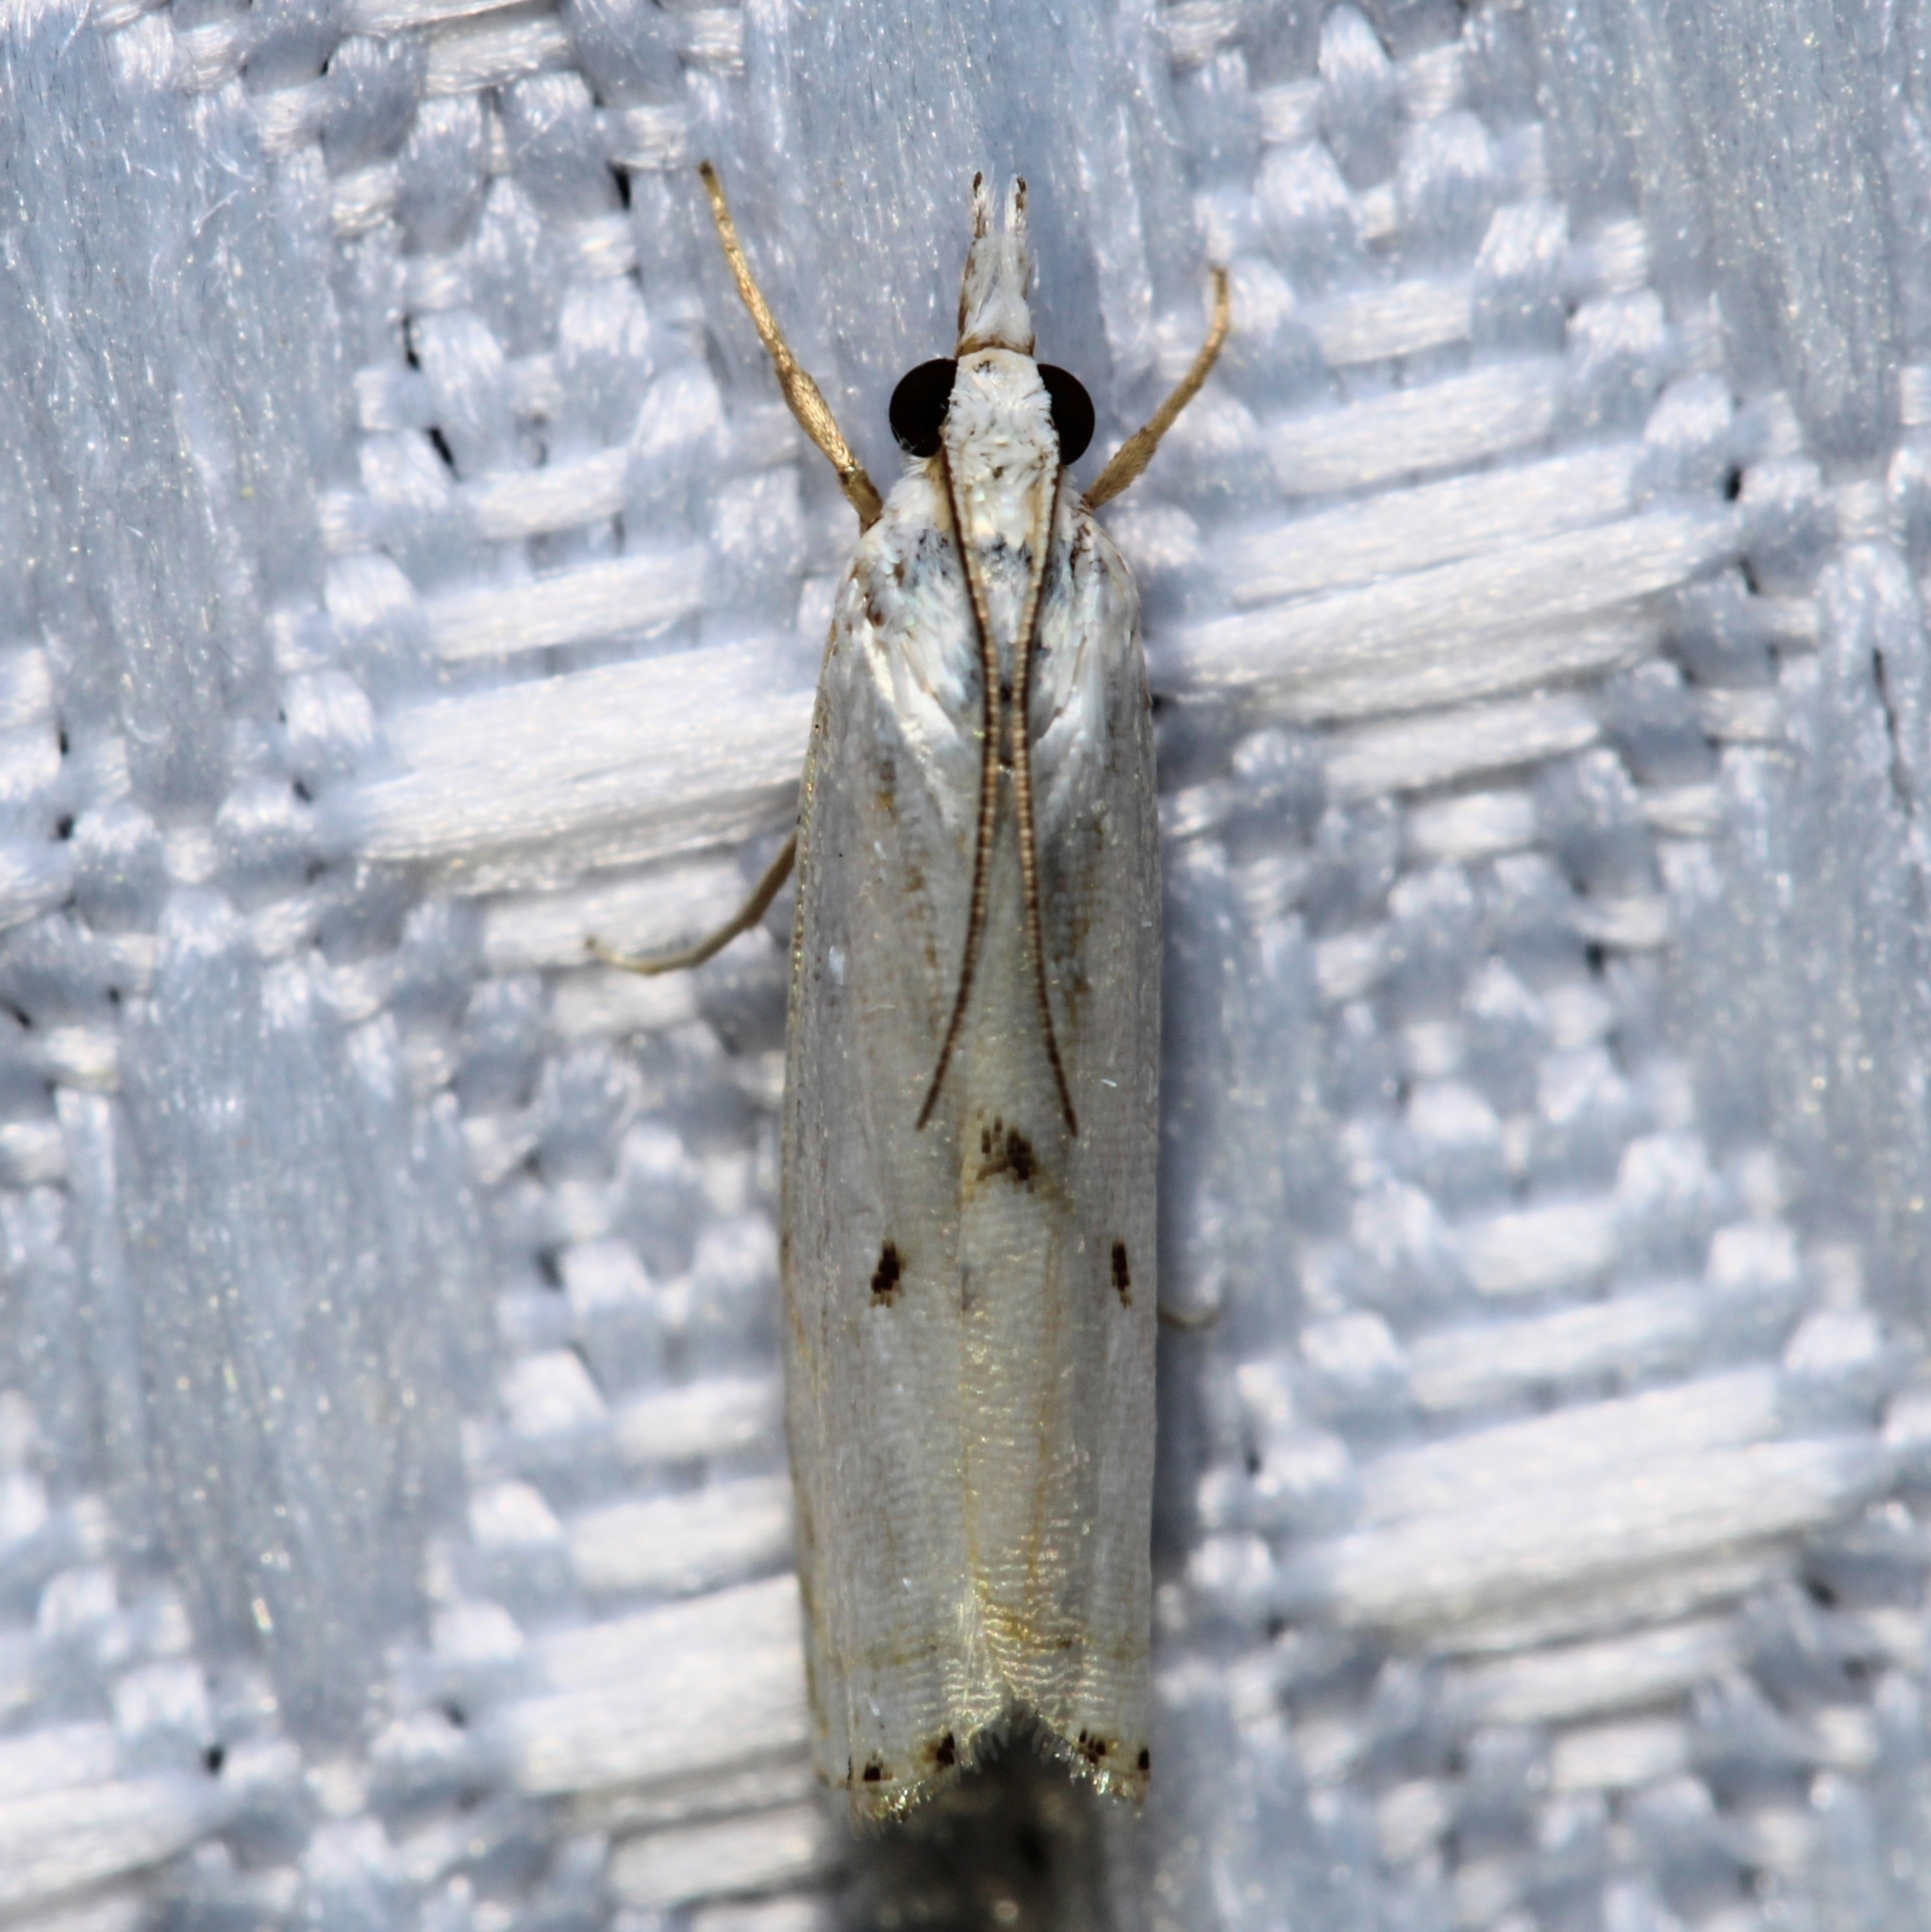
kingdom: Animalia
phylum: Arthropoda
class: Insecta
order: Lepidoptera
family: Crambidae
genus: Microcrambus
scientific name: Microcrambus biguttellus
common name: Gold-stripe grass-veneer moth
